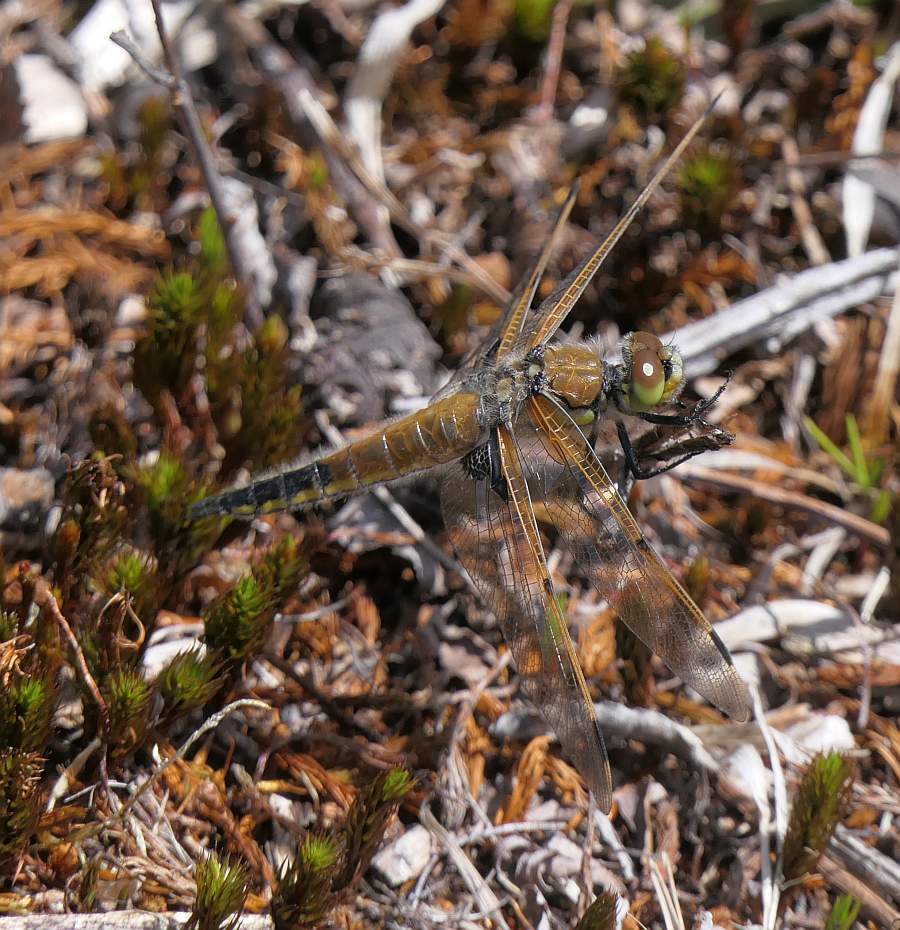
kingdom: Animalia
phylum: Arthropoda
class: Insecta
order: Odonata
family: Libellulidae
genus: Libellula
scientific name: Libellula quadrimaculata
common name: Four-spotted chaser
